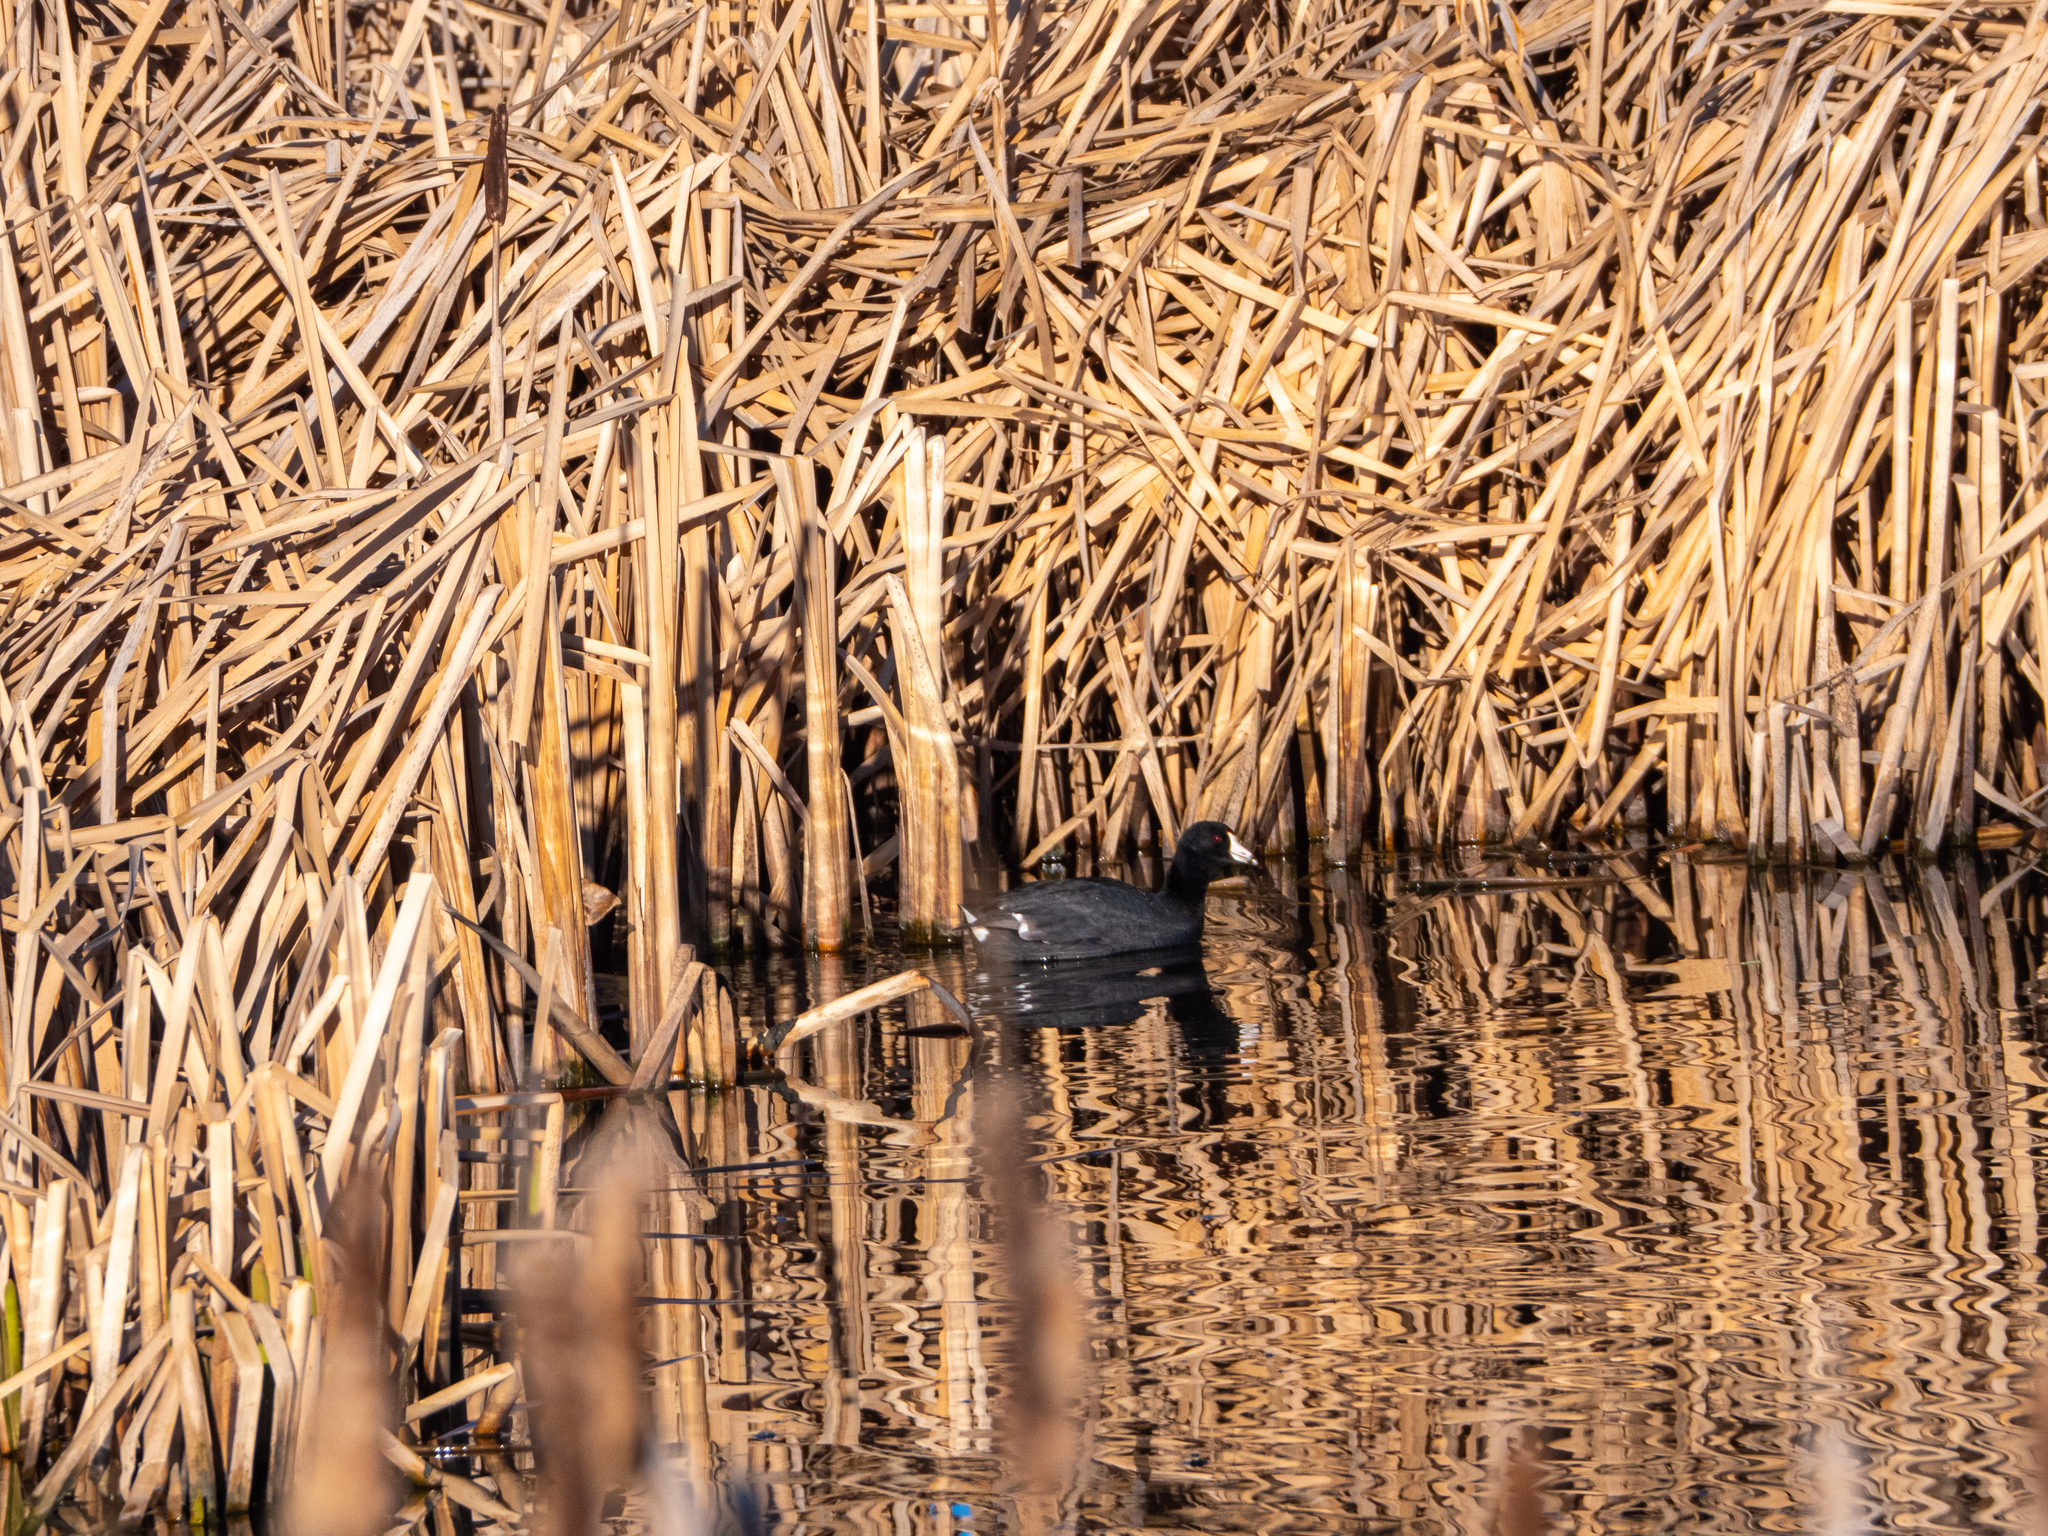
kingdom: Animalia
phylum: Chordata
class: Aves
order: Gruiformes
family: Rallidae
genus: Fulica
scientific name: Fulica americana
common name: American coot
